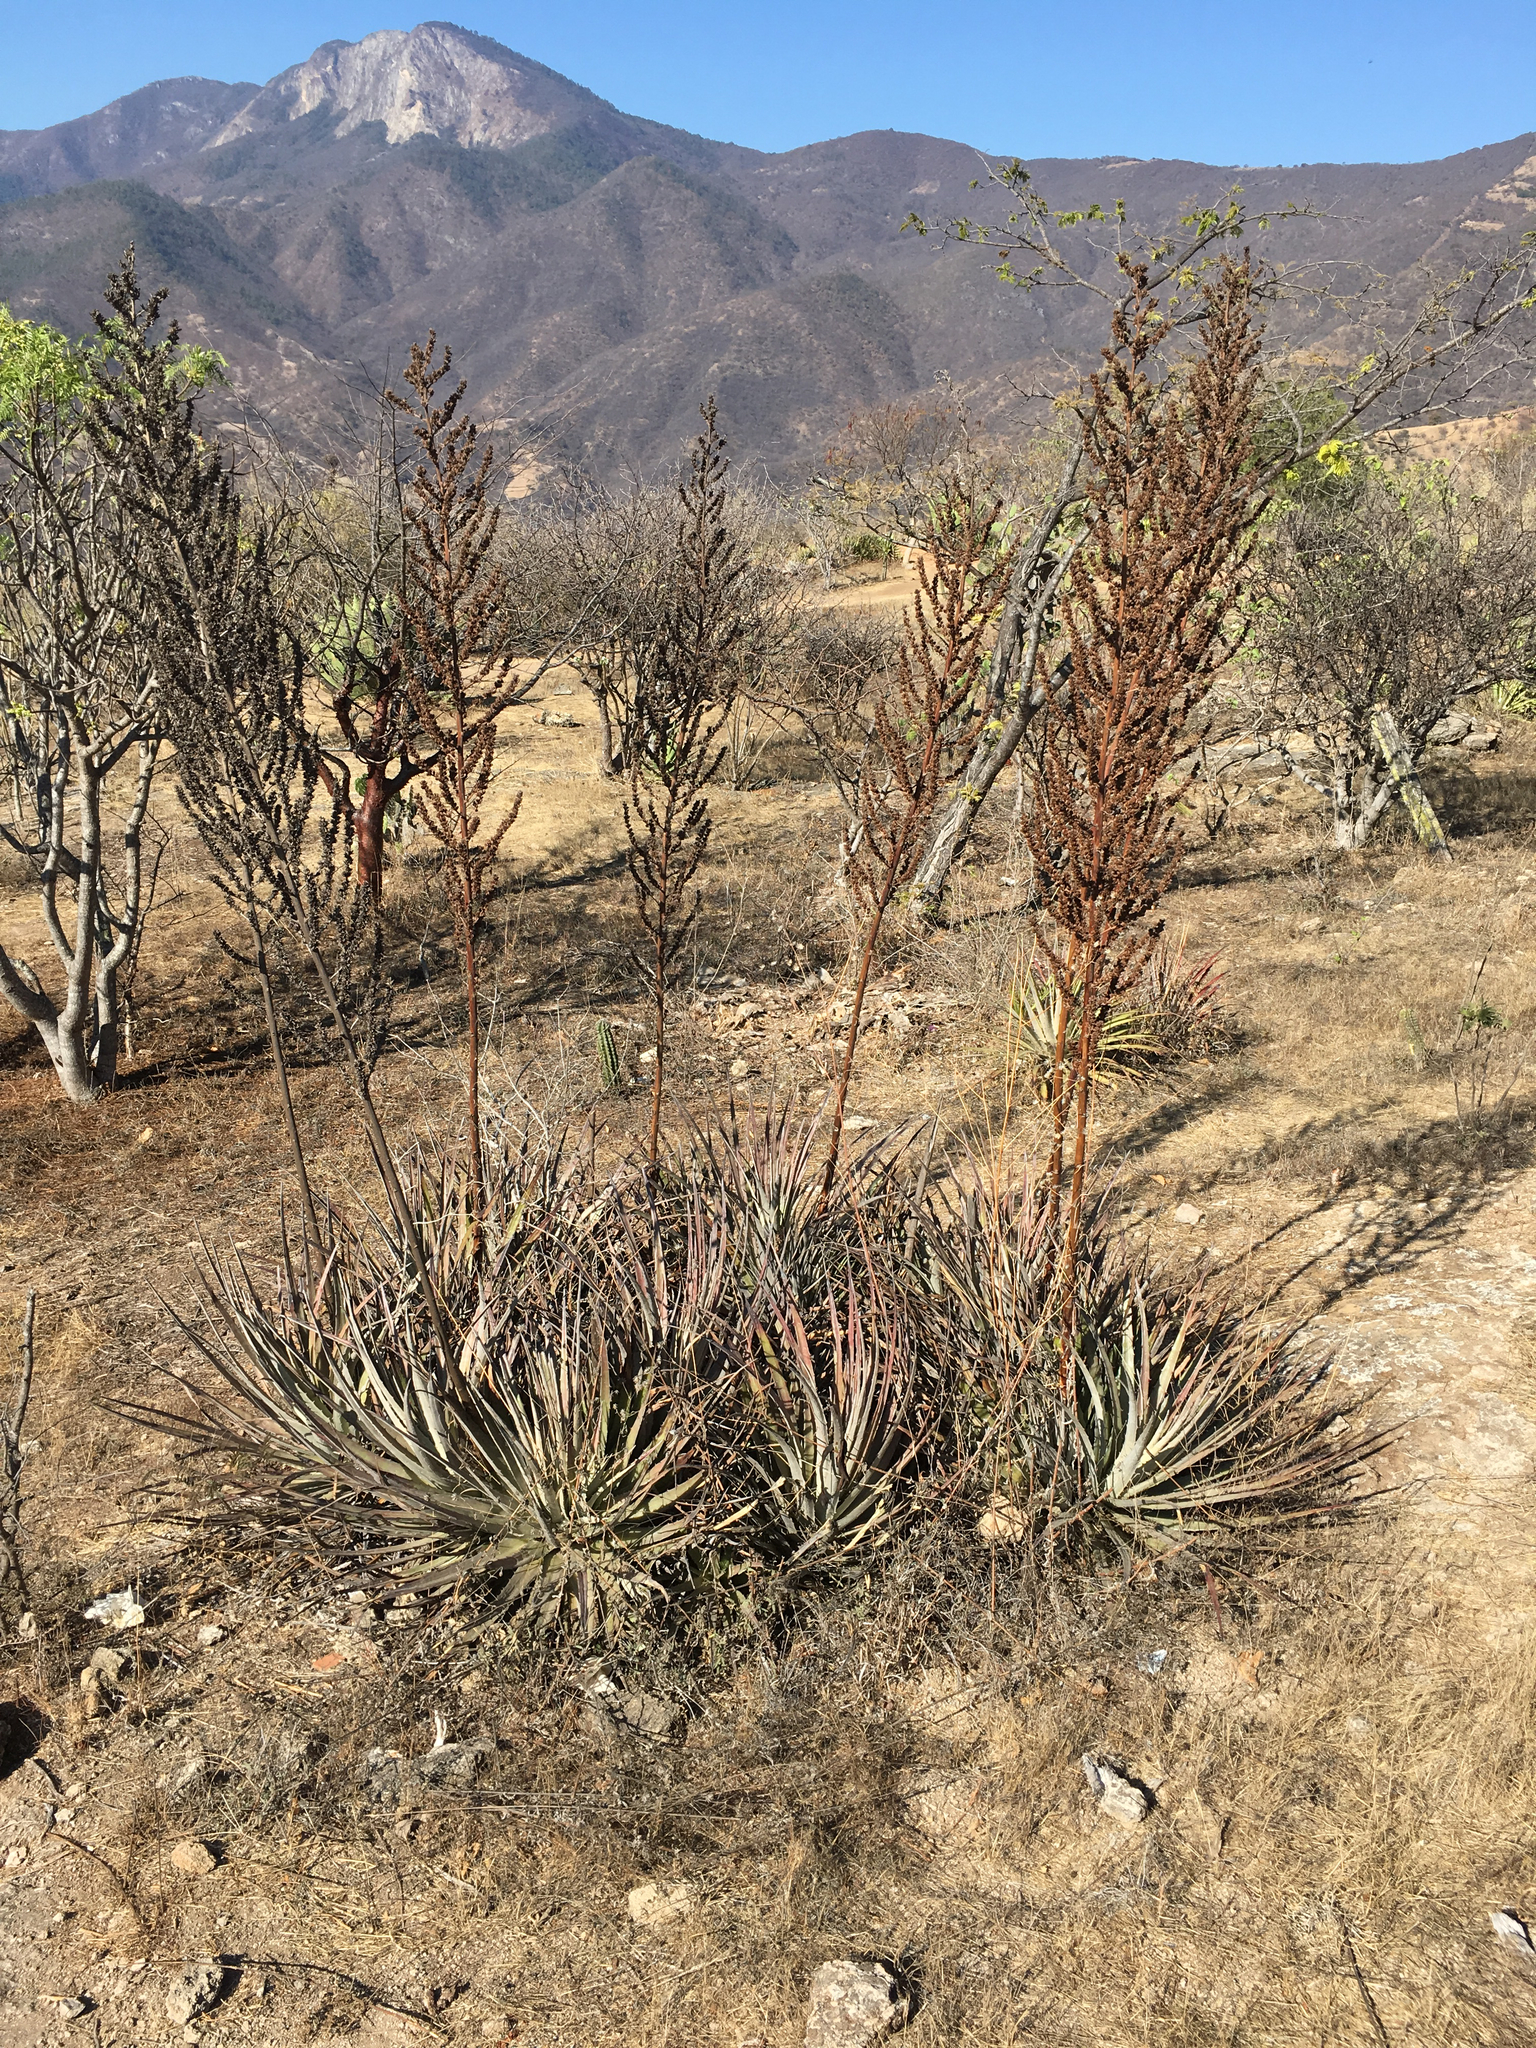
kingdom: Plantae
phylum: Tracheophyta
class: Liliopsida
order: Poales
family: Bromeliaceae
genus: Hechtia
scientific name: Hechtia pringlei
